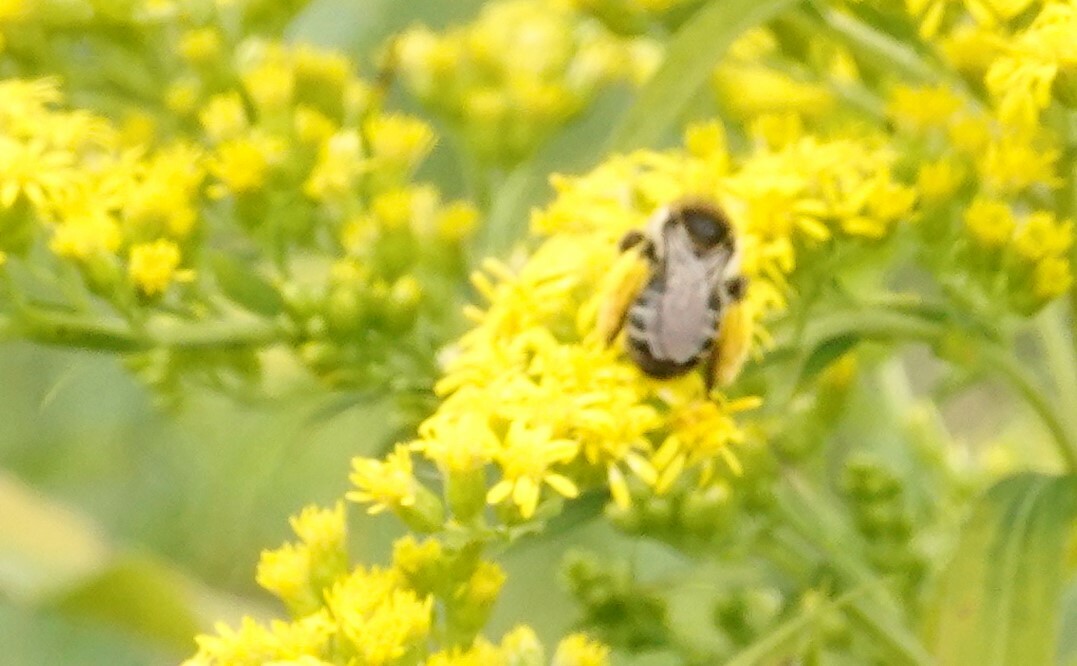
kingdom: Animalia
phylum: Arthropoda
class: Insecta
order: Hymenoptera
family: Apidae
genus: Melissodes
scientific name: Melissodes druriellus
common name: Drury's long-horned bee
